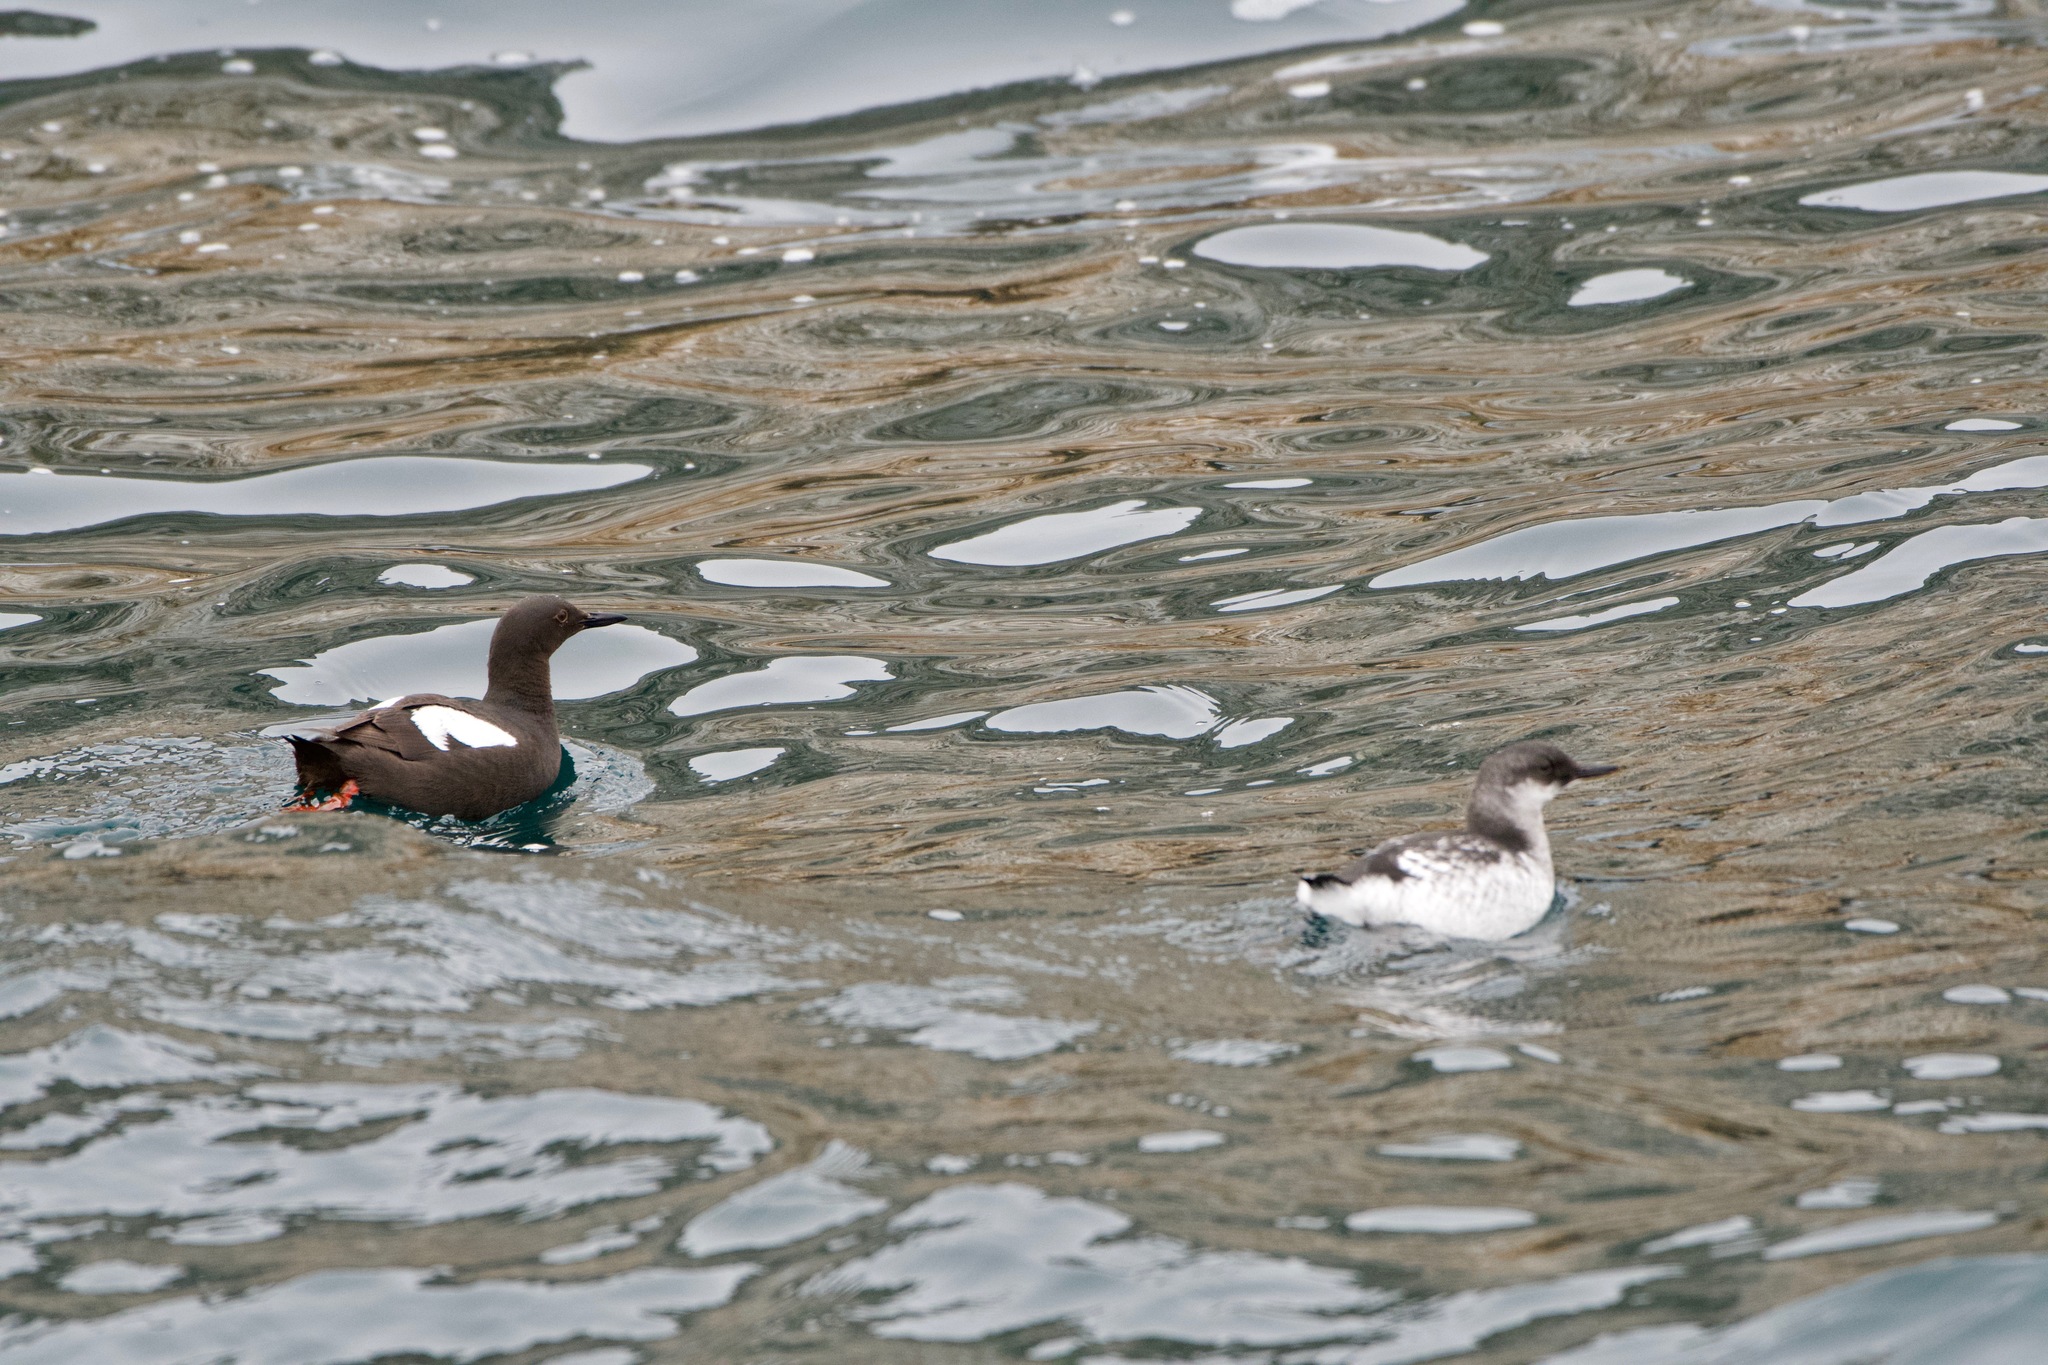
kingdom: Animalia
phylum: Chordata
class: Aves
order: Charadriiformes
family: Alcidae
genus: Cepphus
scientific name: Cepphus columba
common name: Pigeon guillemot
